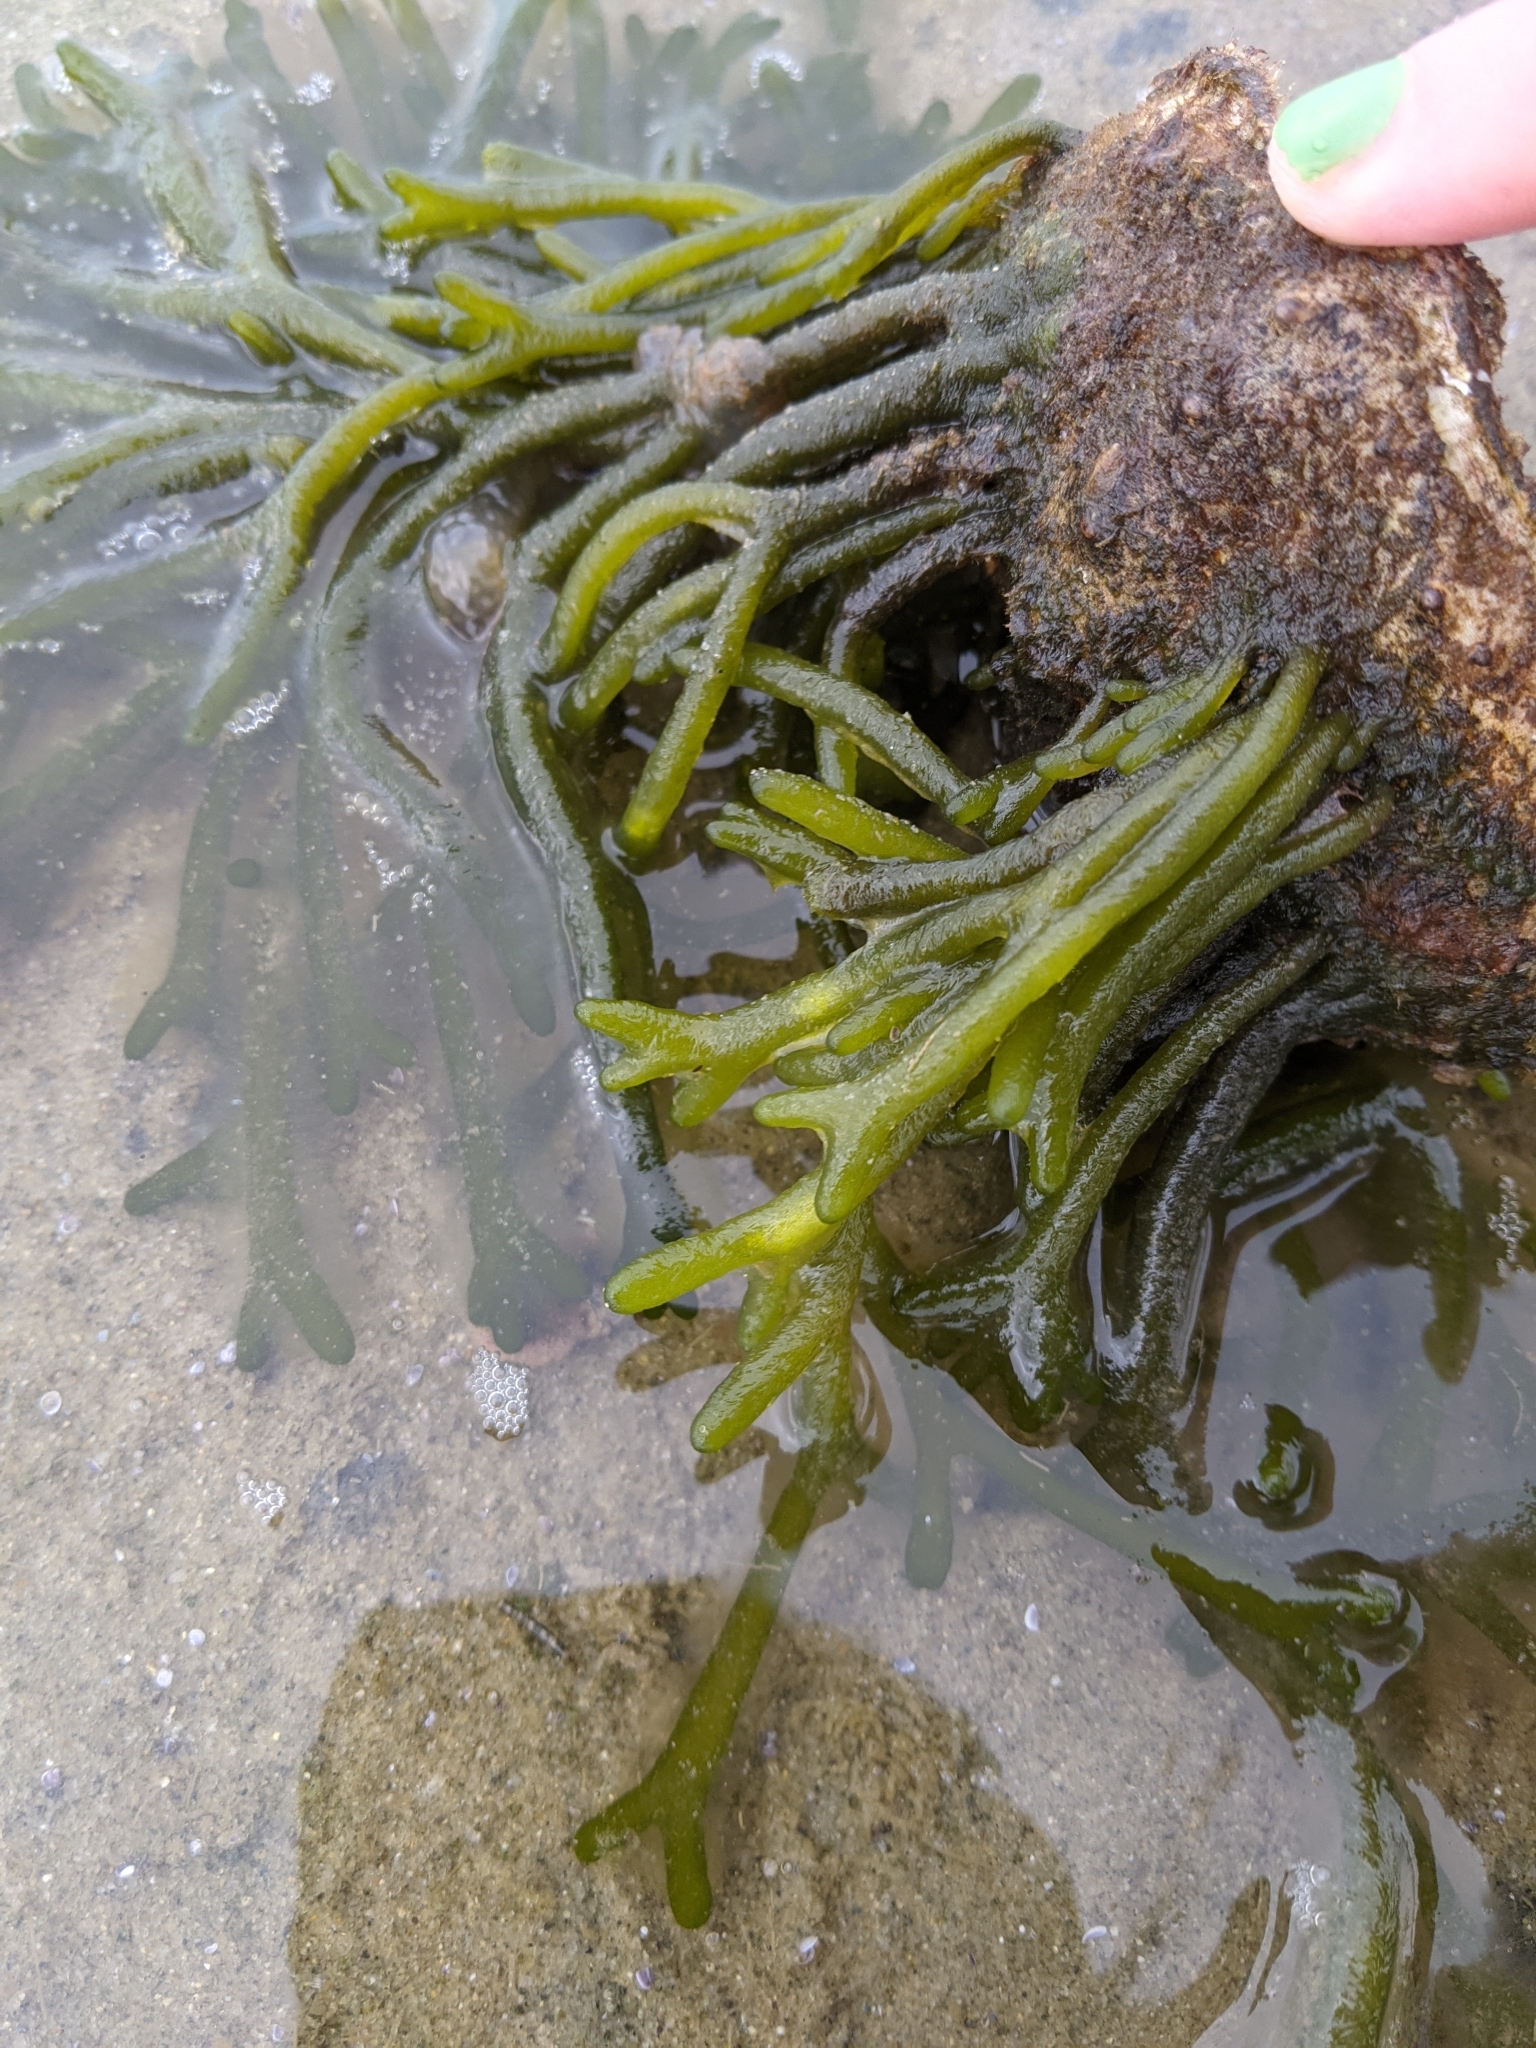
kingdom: Plantae
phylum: Chlorophyta
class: Ulvophyceae
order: Bryopsidales
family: Codiaceae
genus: Codium
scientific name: Codium fragile
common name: Dead man's fingers
